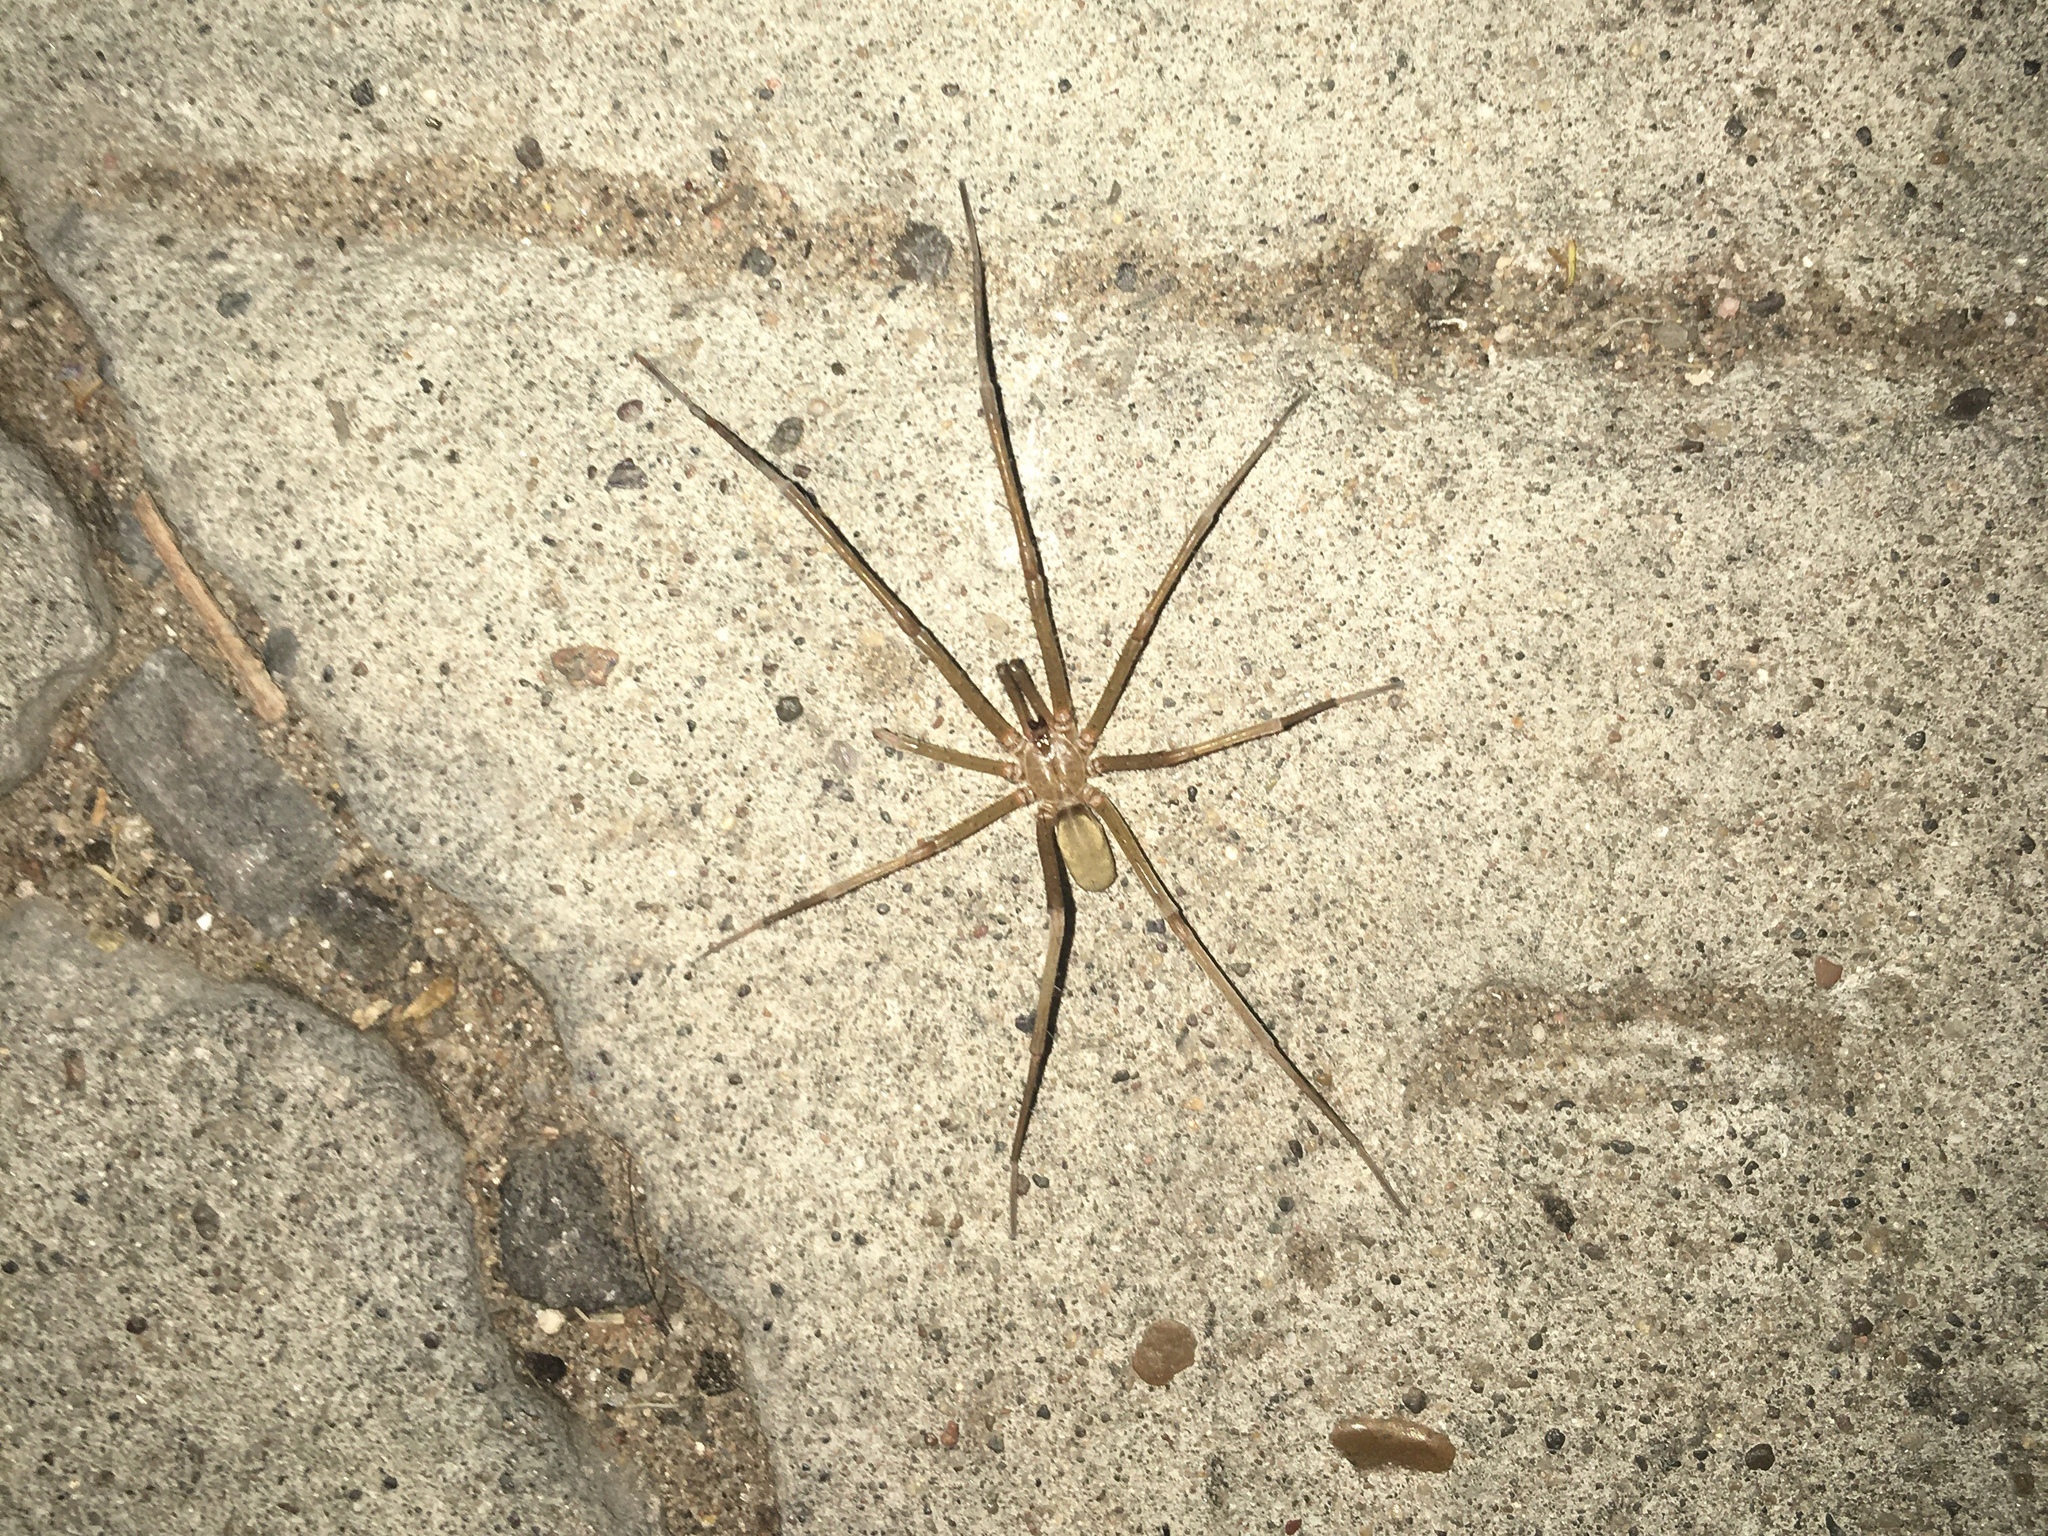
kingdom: Animalia
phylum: Arthropoda
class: Arachnida
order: Araneae
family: Filistatidae
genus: Kukulcania
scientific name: Kukulcania hibernalis
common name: Crevice weaver
